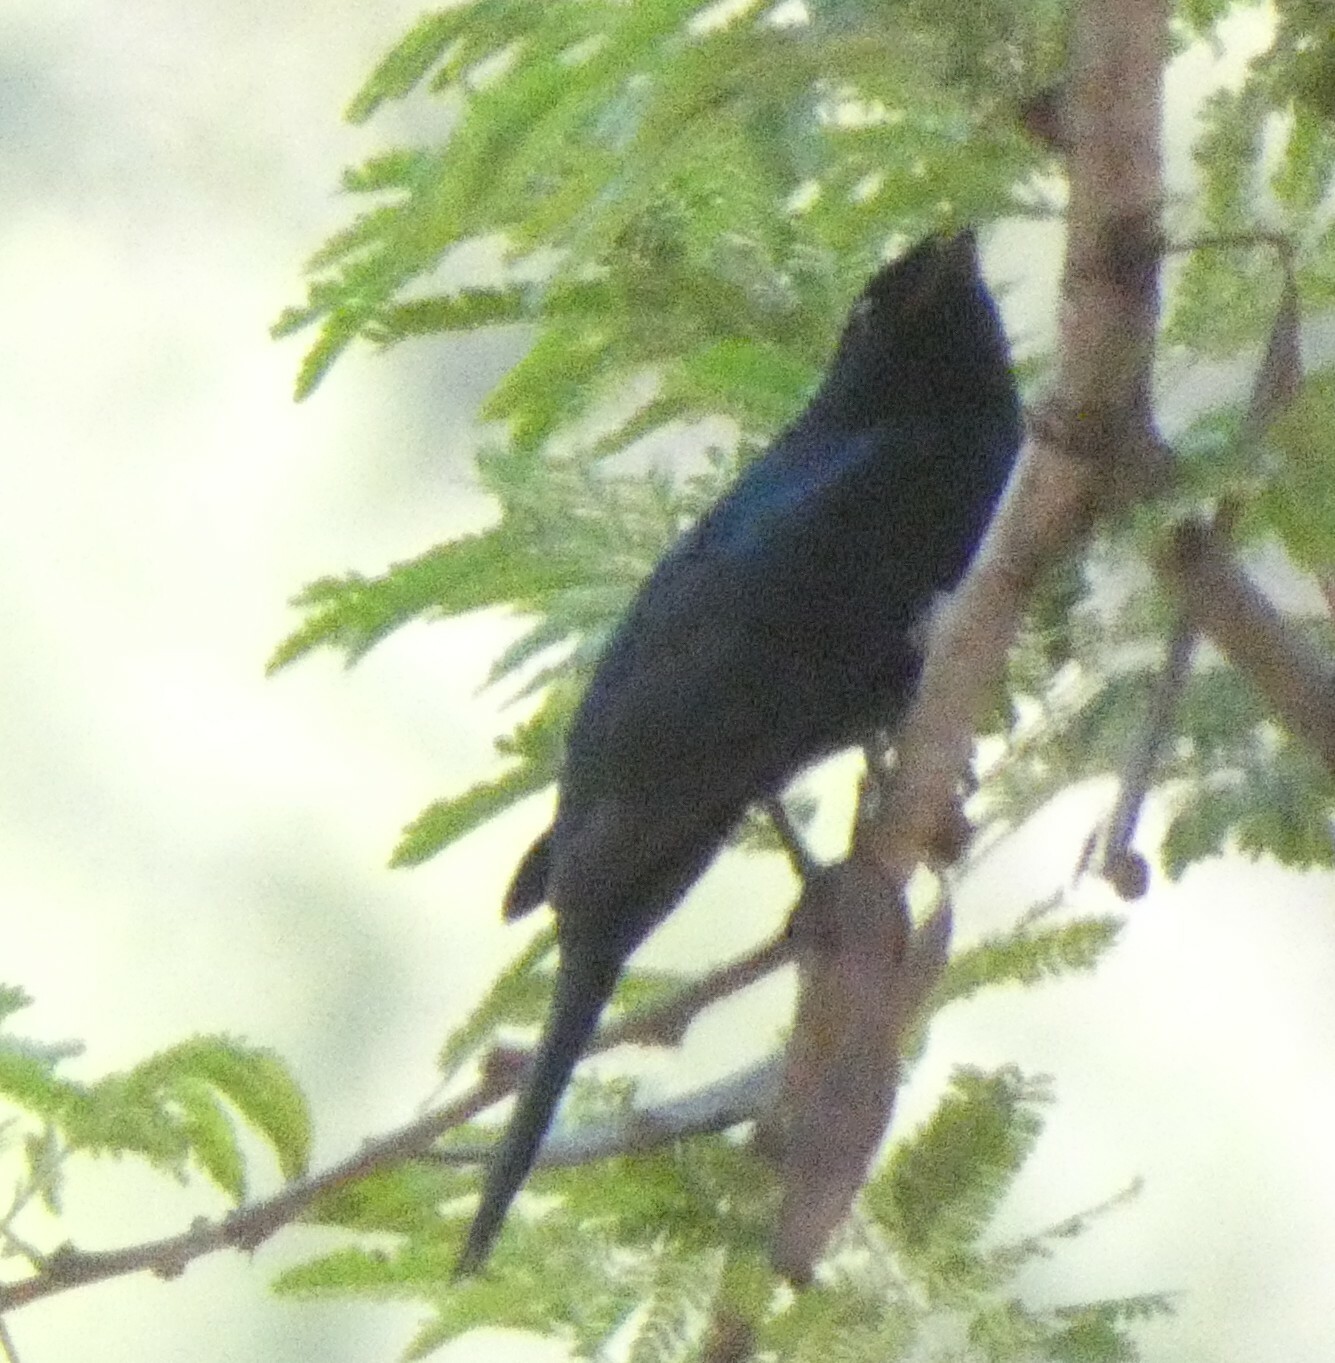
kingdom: Animalia
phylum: Chordata
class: Aves
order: Passeriformes
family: Campephagidae
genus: Campephaga
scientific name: Campephaga flava
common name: Black cuckooshrike
